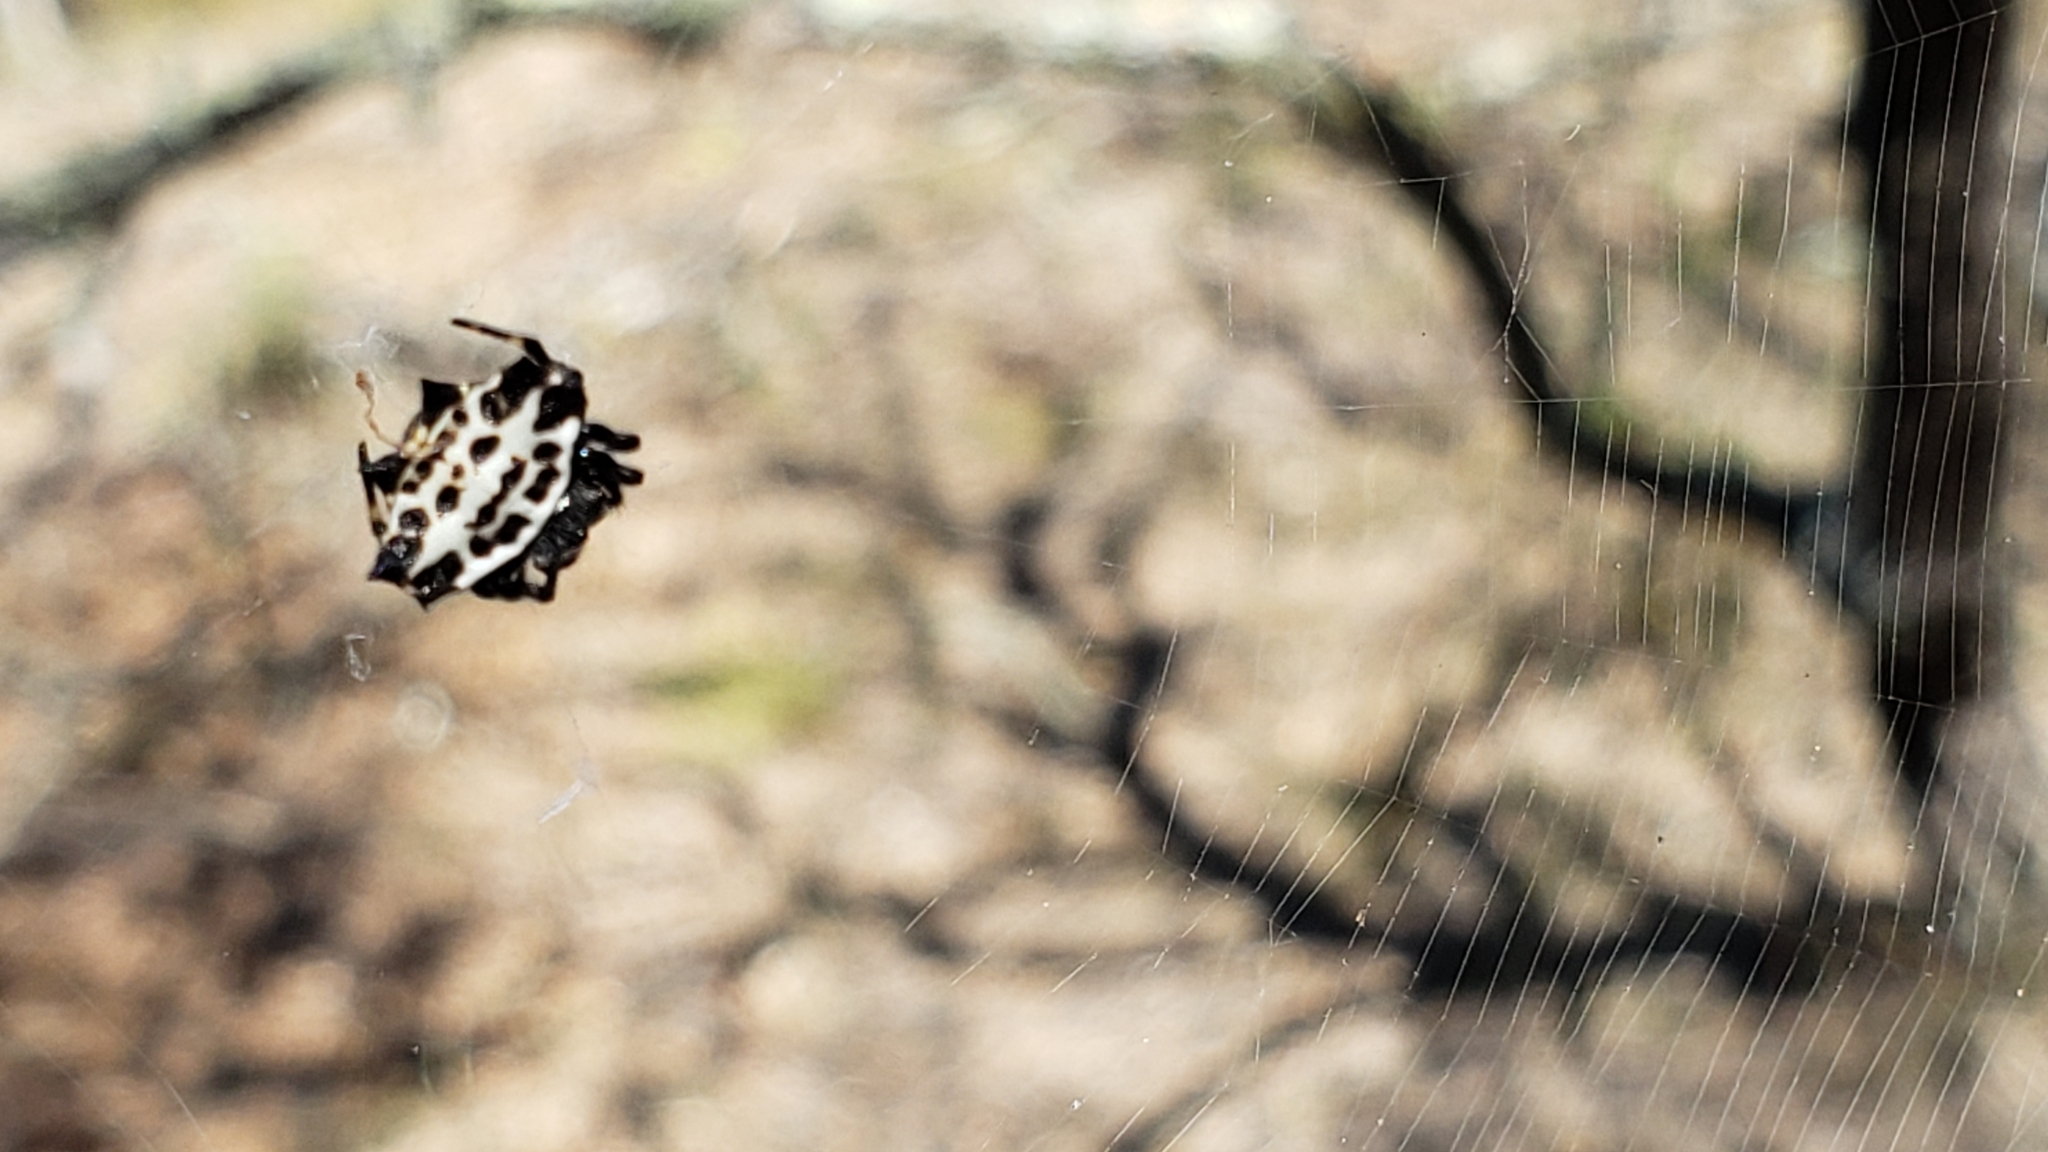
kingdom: Animalia
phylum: Arthropoda
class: Arachnida
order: Araneae
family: Araneidae
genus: Gasteracantha
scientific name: Gasteracantha cancriformis
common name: Orb weavers
